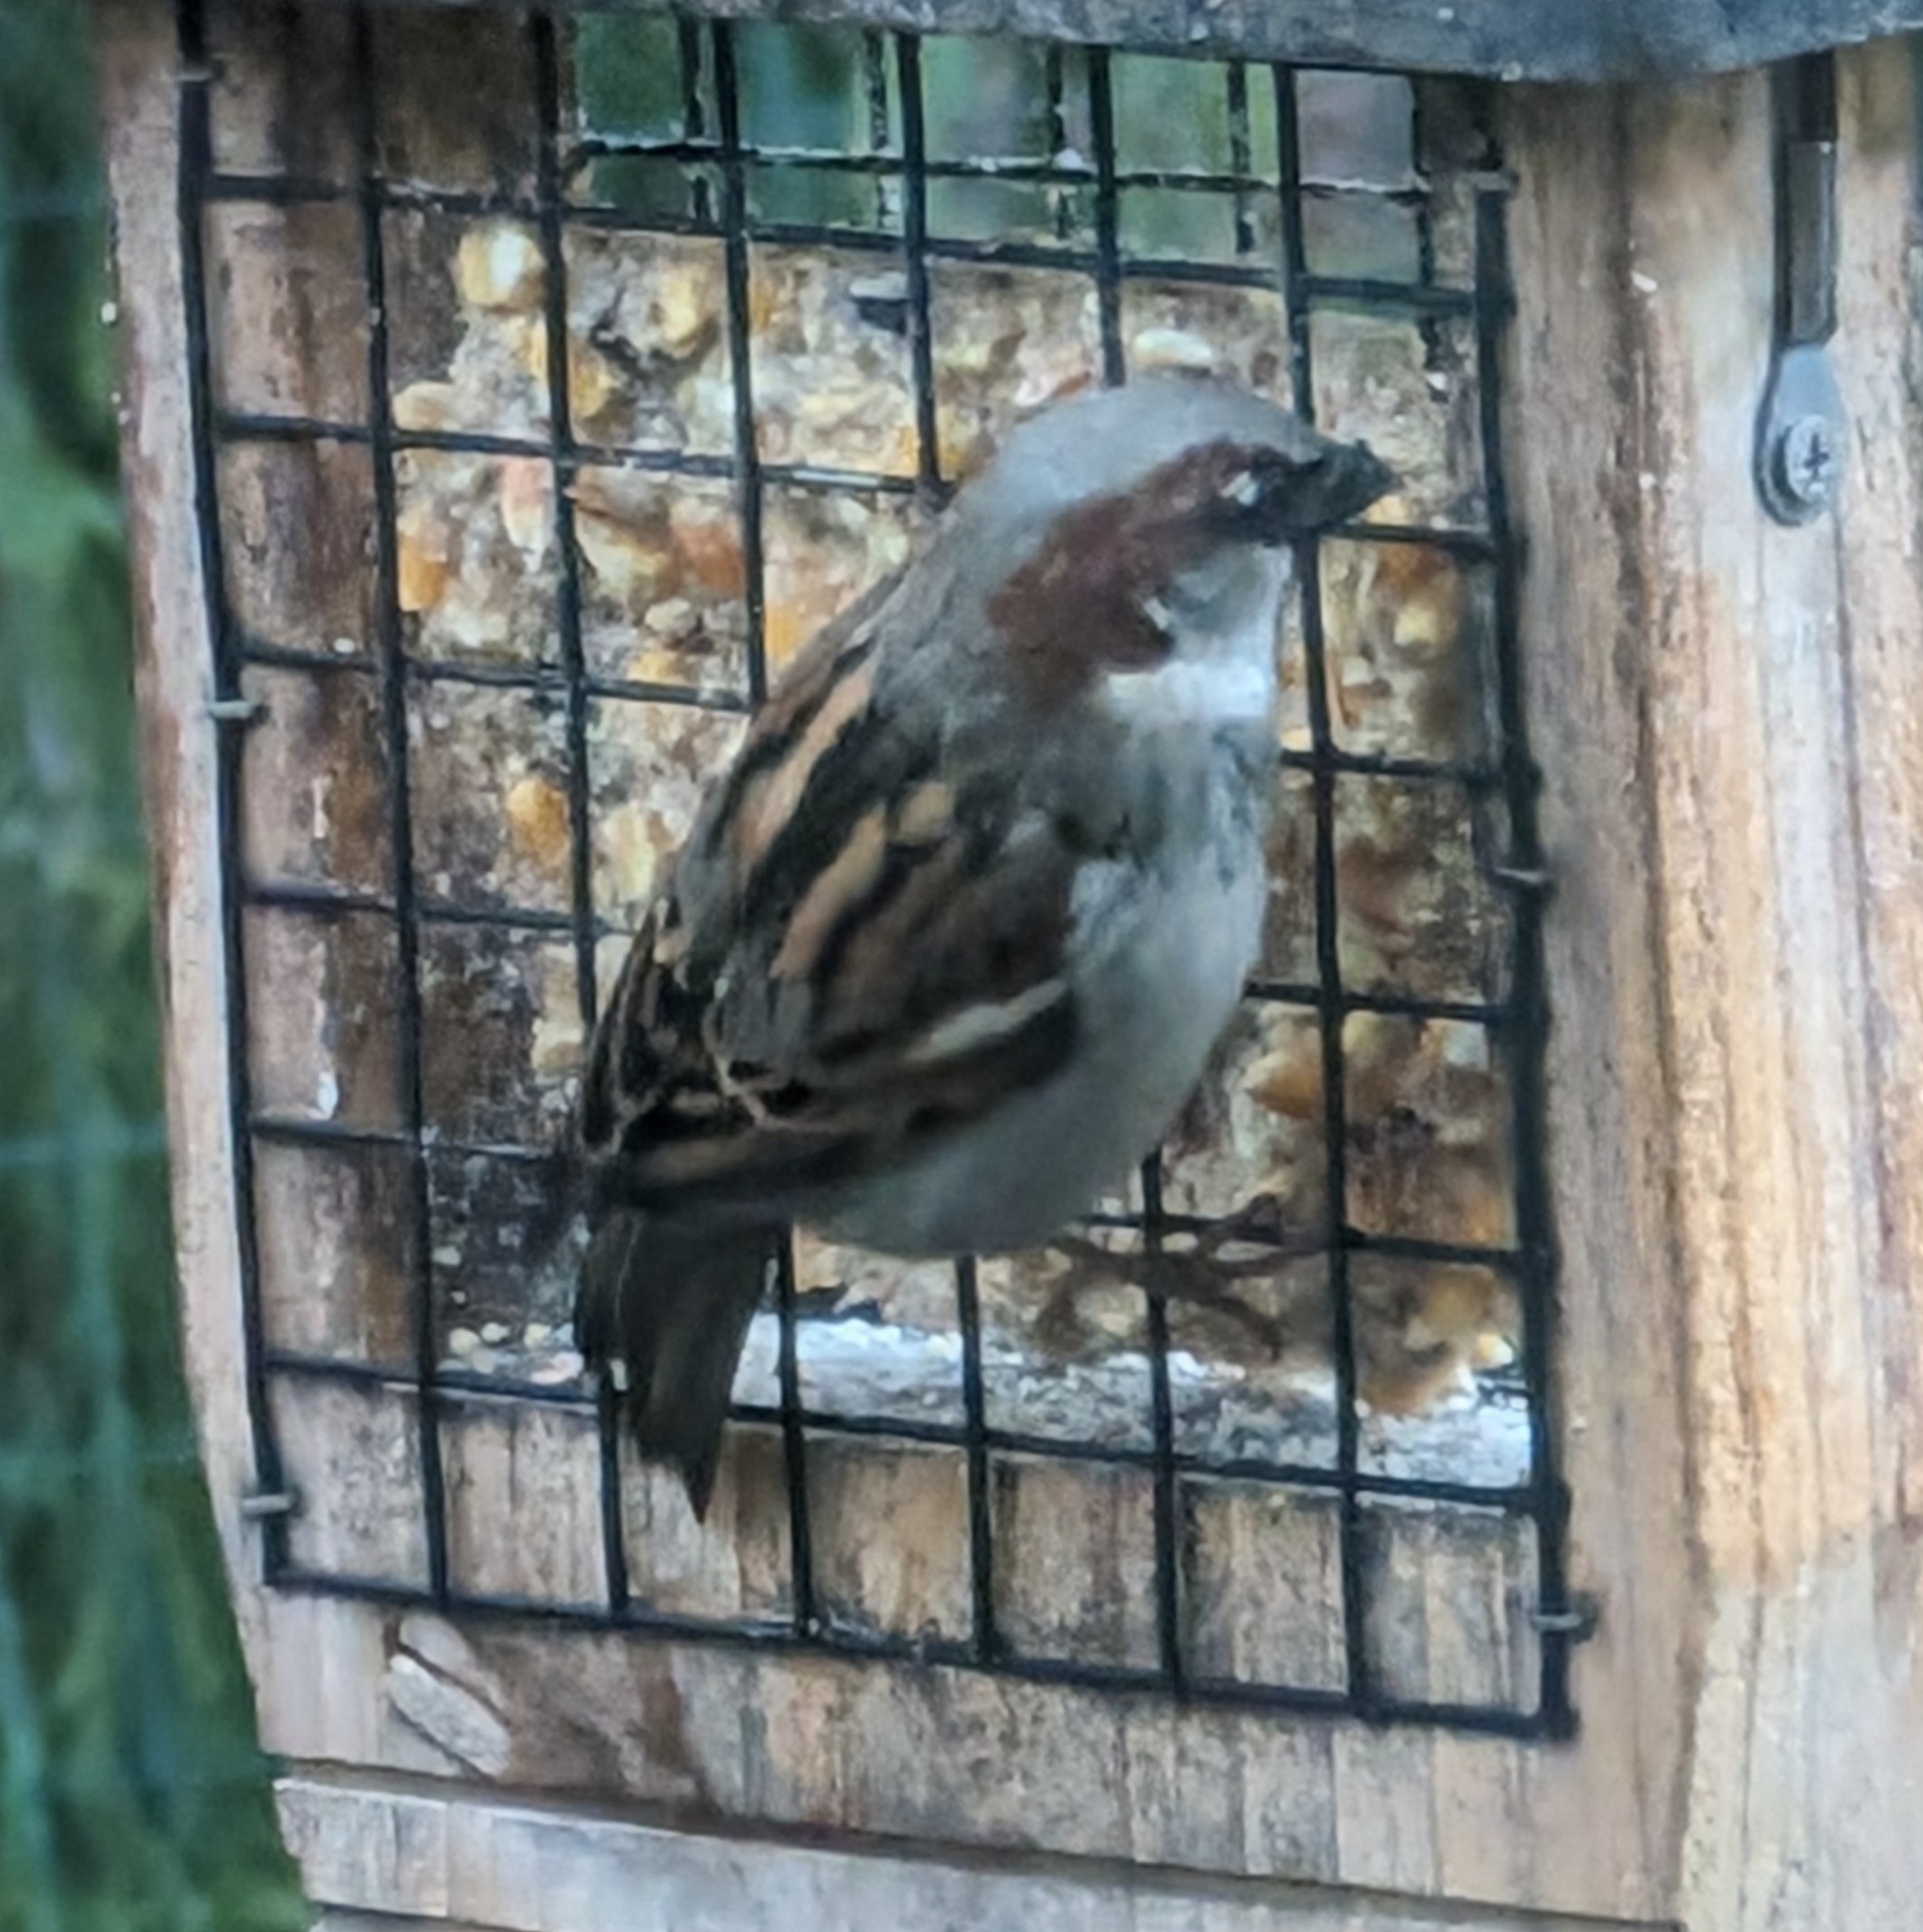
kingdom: Animalia
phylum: Chordata
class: Aves
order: Passeriformes
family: Passeridae
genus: Passer
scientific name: Passer domesticus
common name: House sparrow
